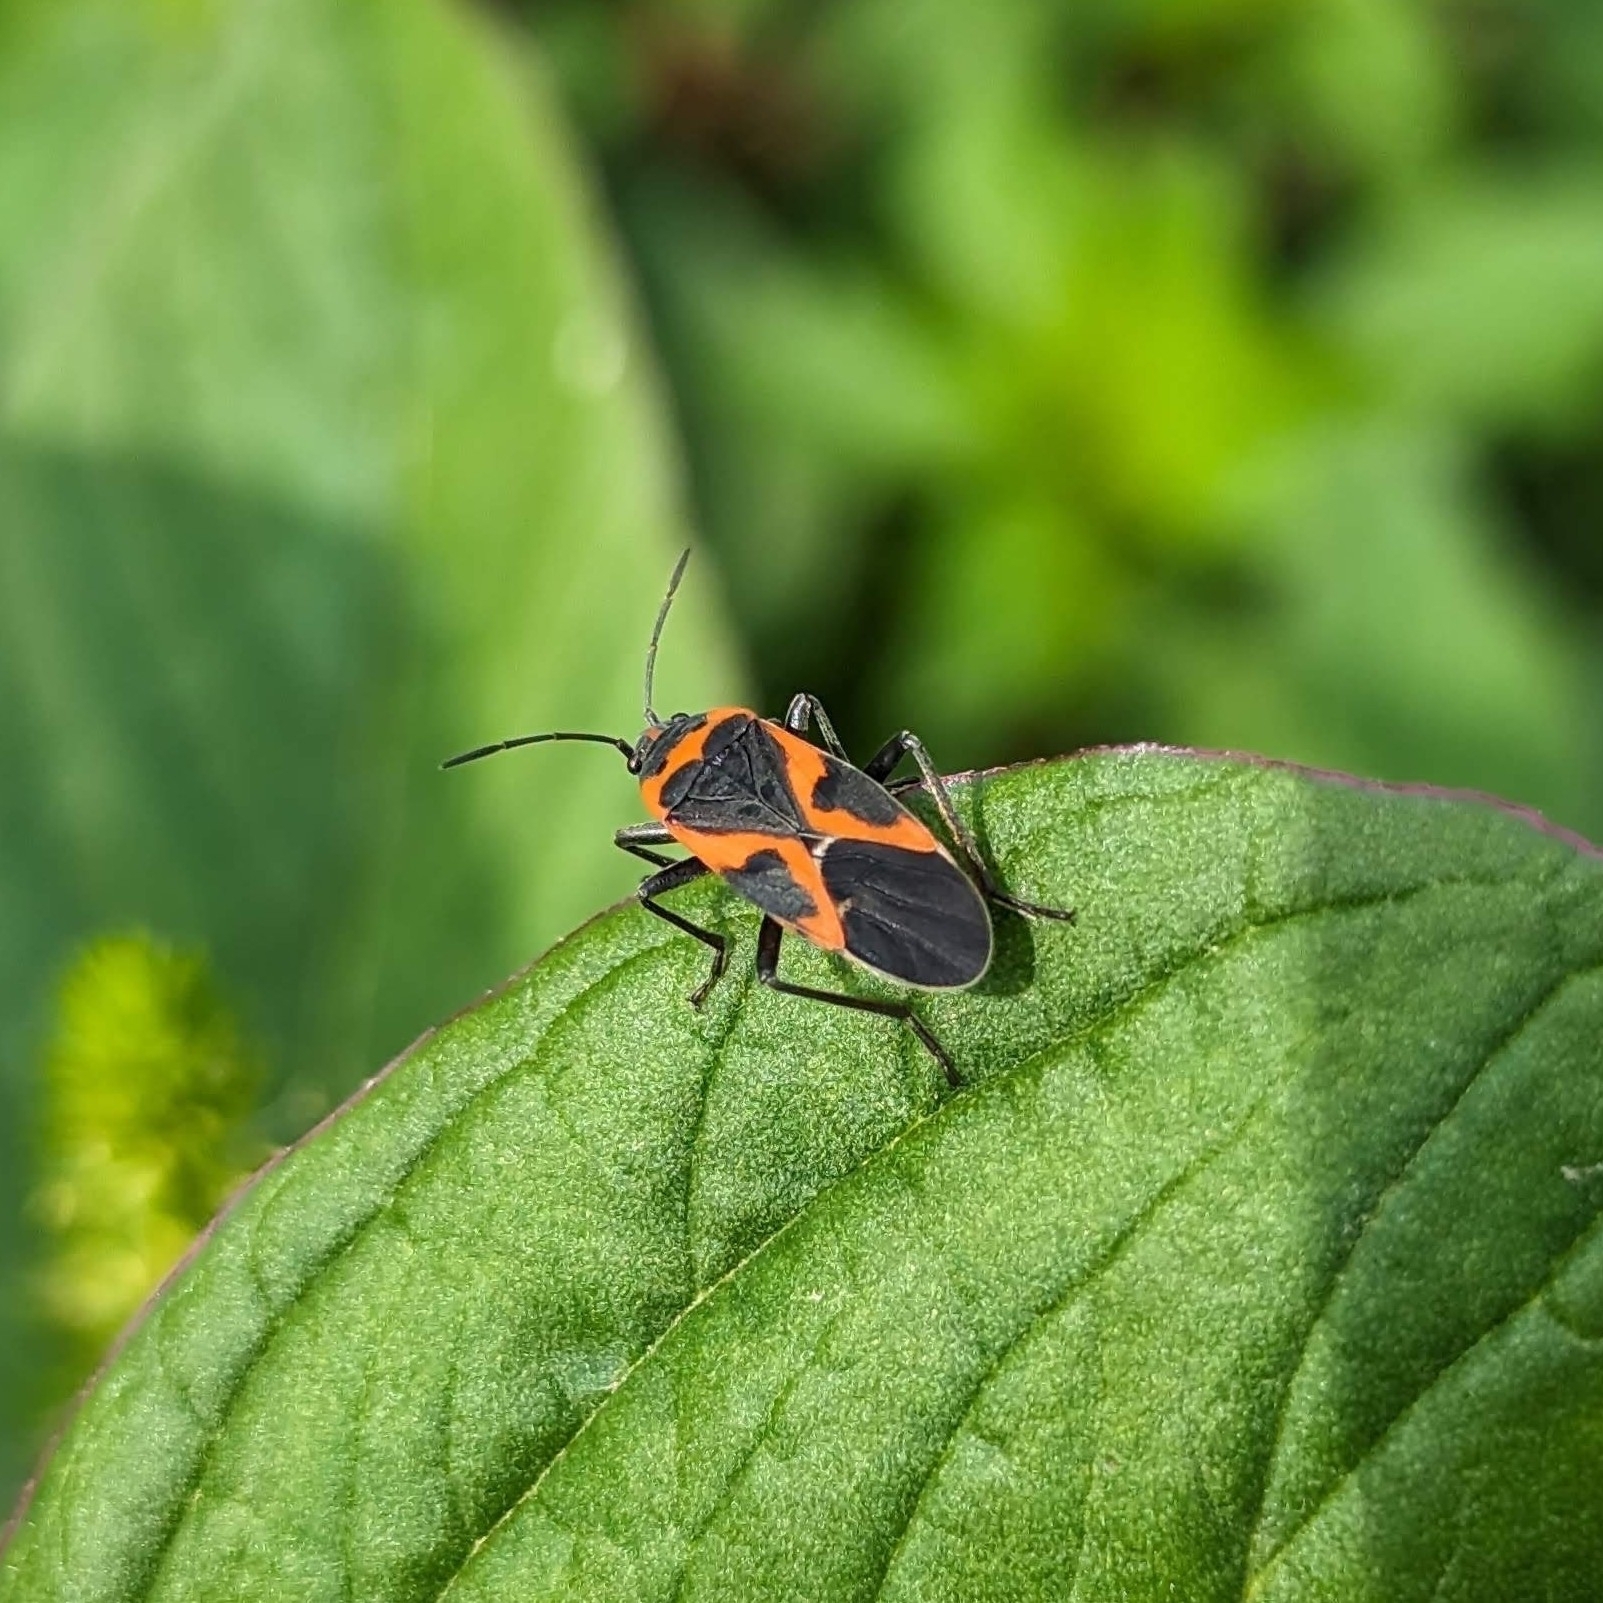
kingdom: Animalia
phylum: Arthropoda
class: Insecta
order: Hemiptera
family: Lygaeidae
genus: Lygaeus
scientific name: Lygaeus kalmii
